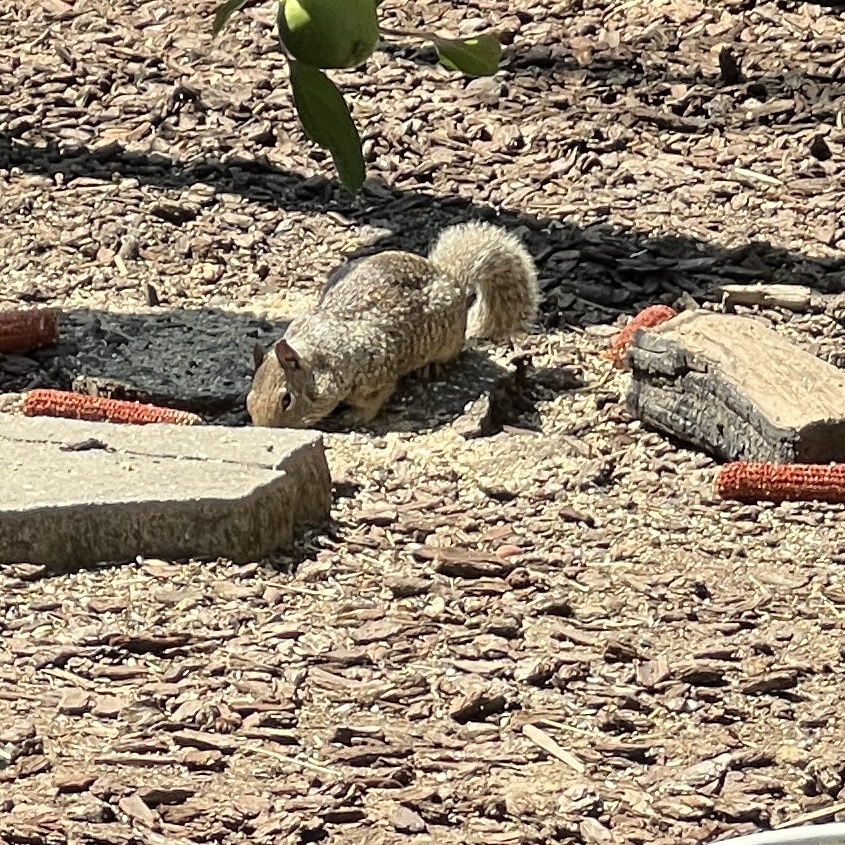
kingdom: Animalia
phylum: Chordata
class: Mammalia
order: Rodentia
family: Sciuridae
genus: Otospermophilus
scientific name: Otospermophilus beecheyi
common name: California ground squirrel
